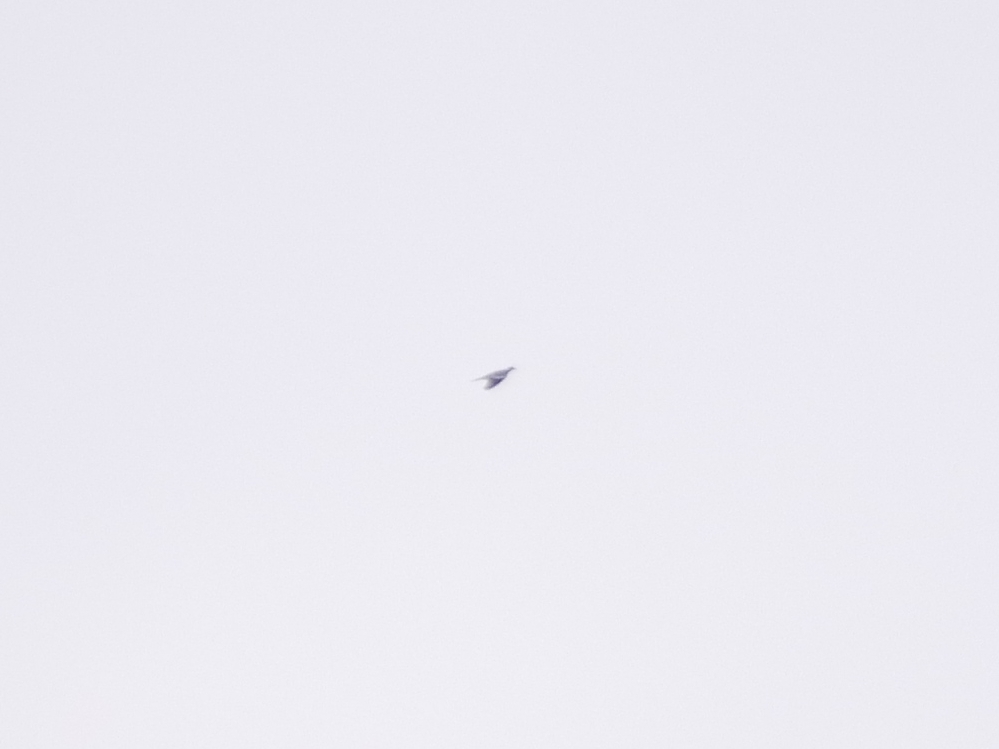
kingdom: Animalia
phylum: Chordata
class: Aves
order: Columbiformes
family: Columbidae
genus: Columba
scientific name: Columba palumbus
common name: Common wood pigeon
